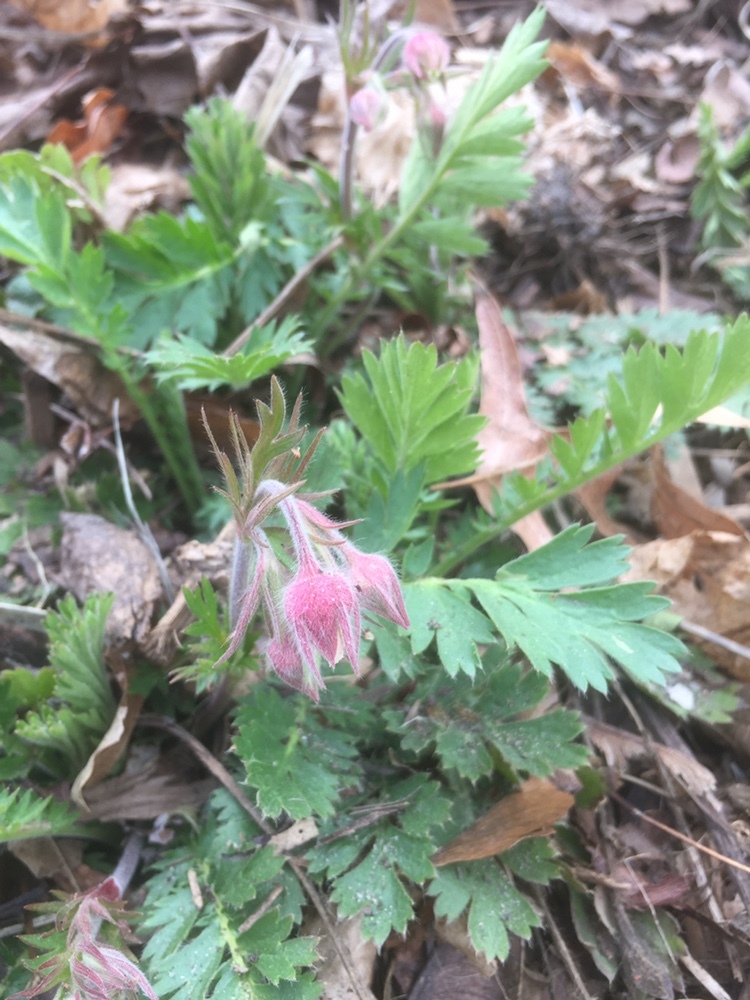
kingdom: Plantae
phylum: Tracheophyta
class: Magnoliopsida
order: Rosales
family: Rosaceae
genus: Geum
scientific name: Geum triflorum
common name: Old man's whiskers
